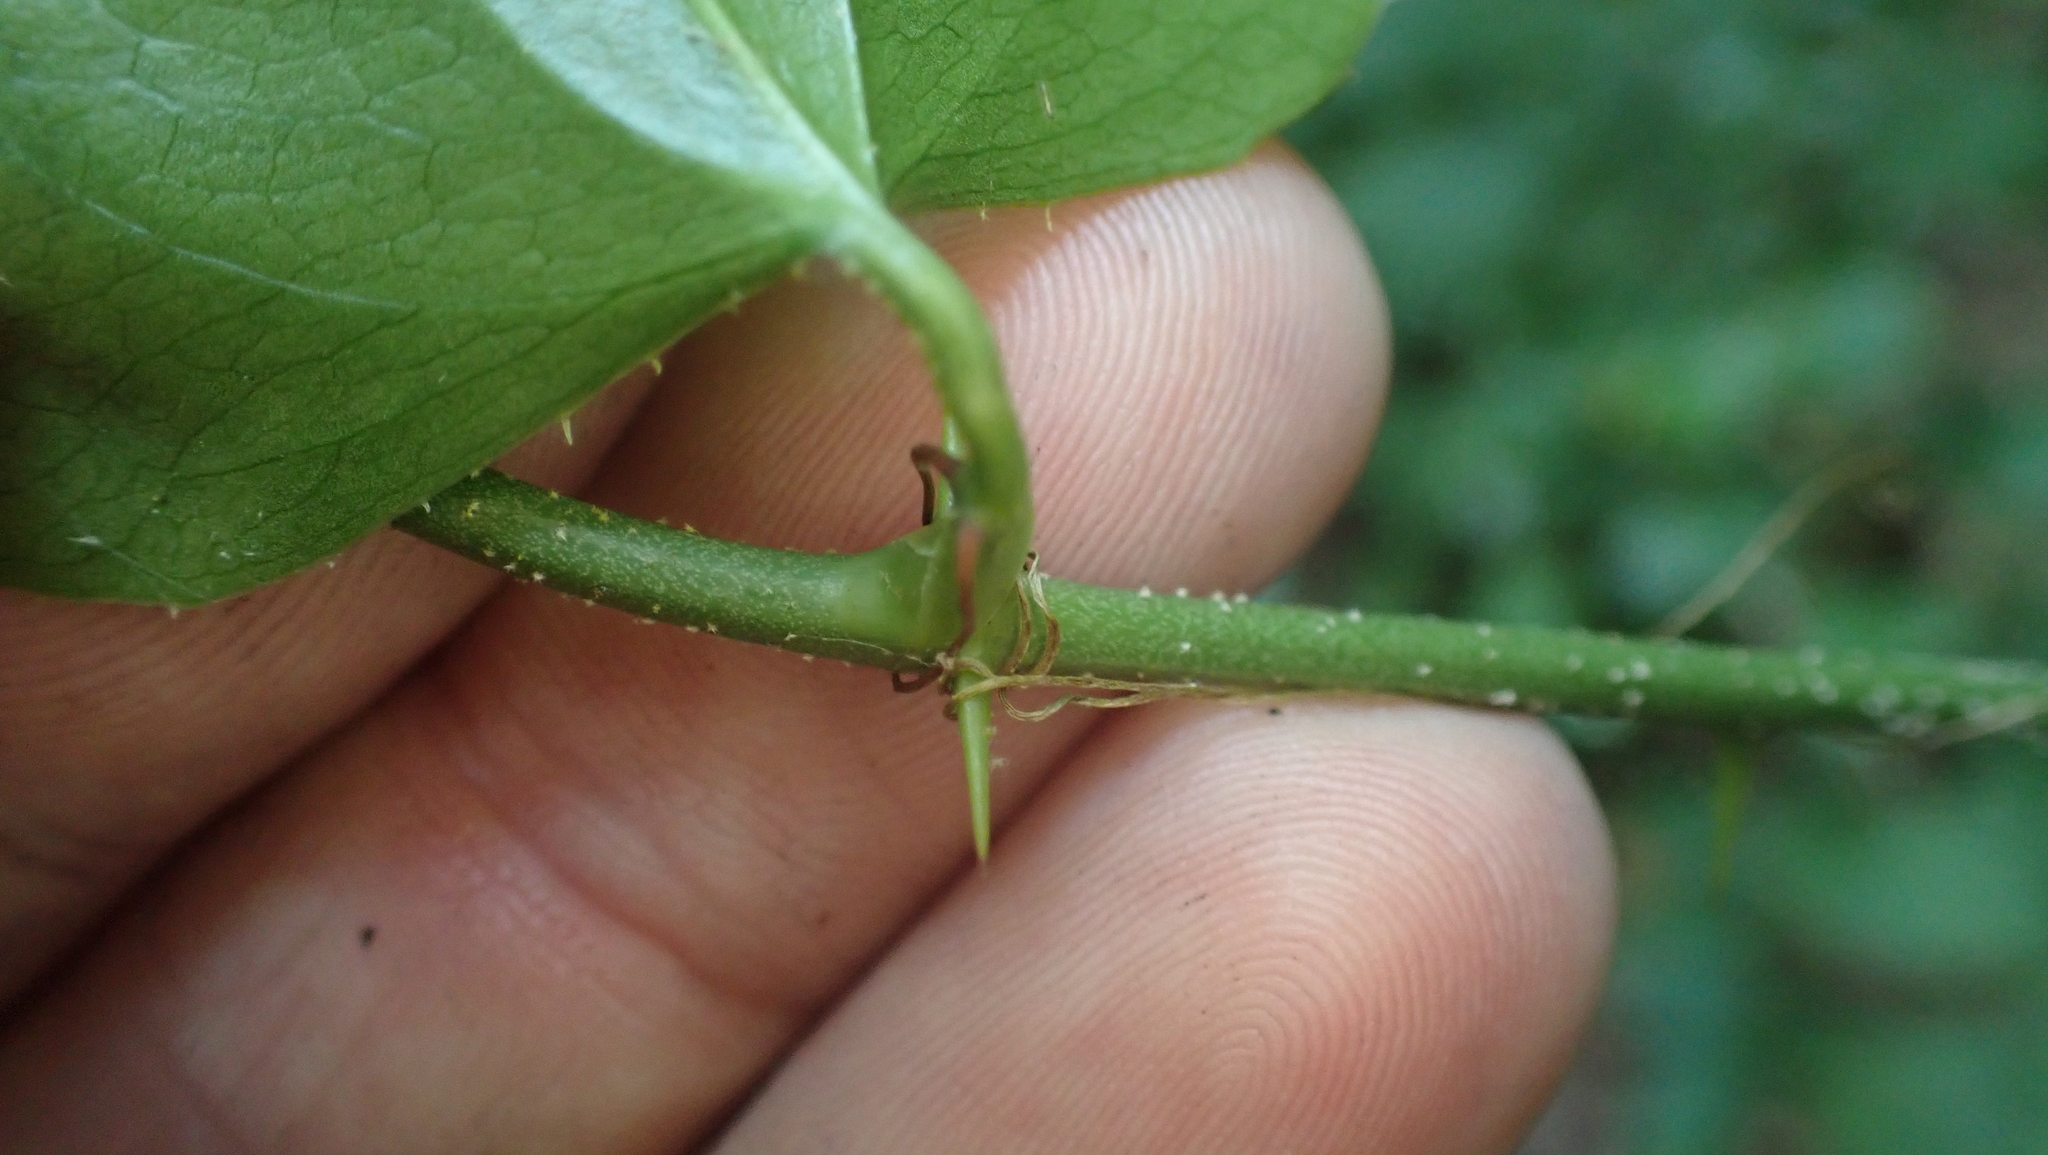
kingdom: Plantae
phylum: Tracheophyta
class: Liliopsida
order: Liliales
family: Smilacaceae
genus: Smilax
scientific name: Smilax bona-nox
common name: Catbrier
